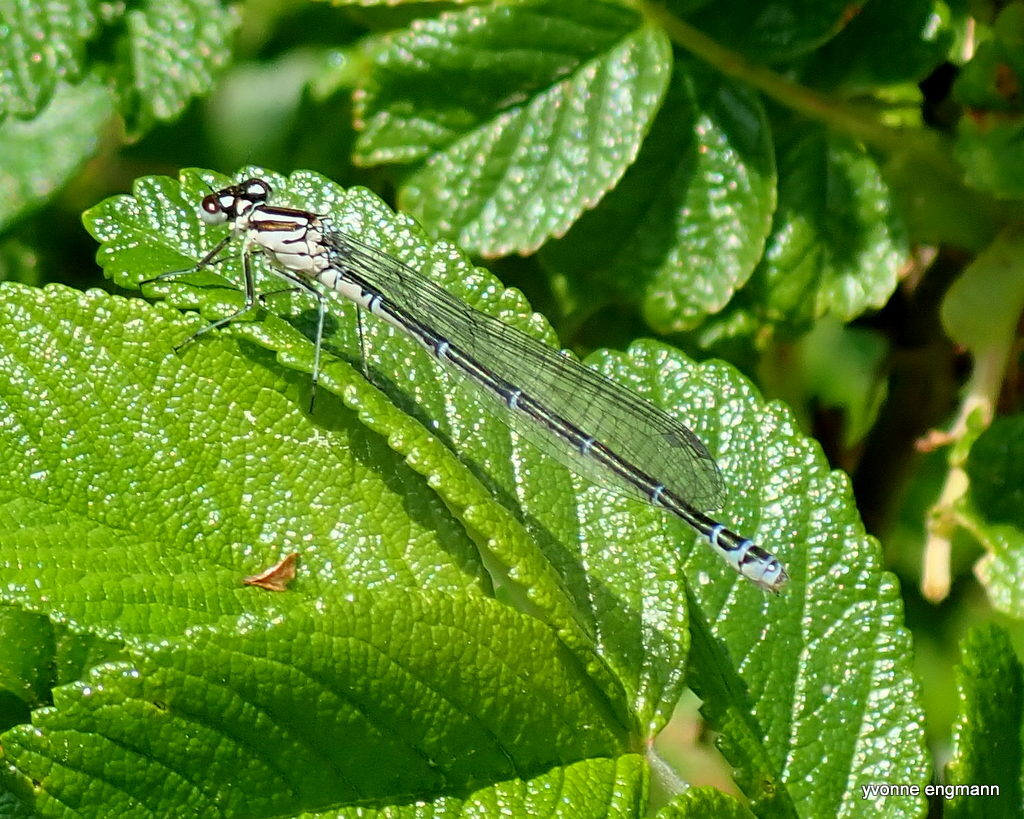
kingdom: Animalia
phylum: Arthropoda
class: Insecta
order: Odonata
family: Coenagrionidae
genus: Coenagrion
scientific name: Coenagrion puella
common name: Azure damselfly
